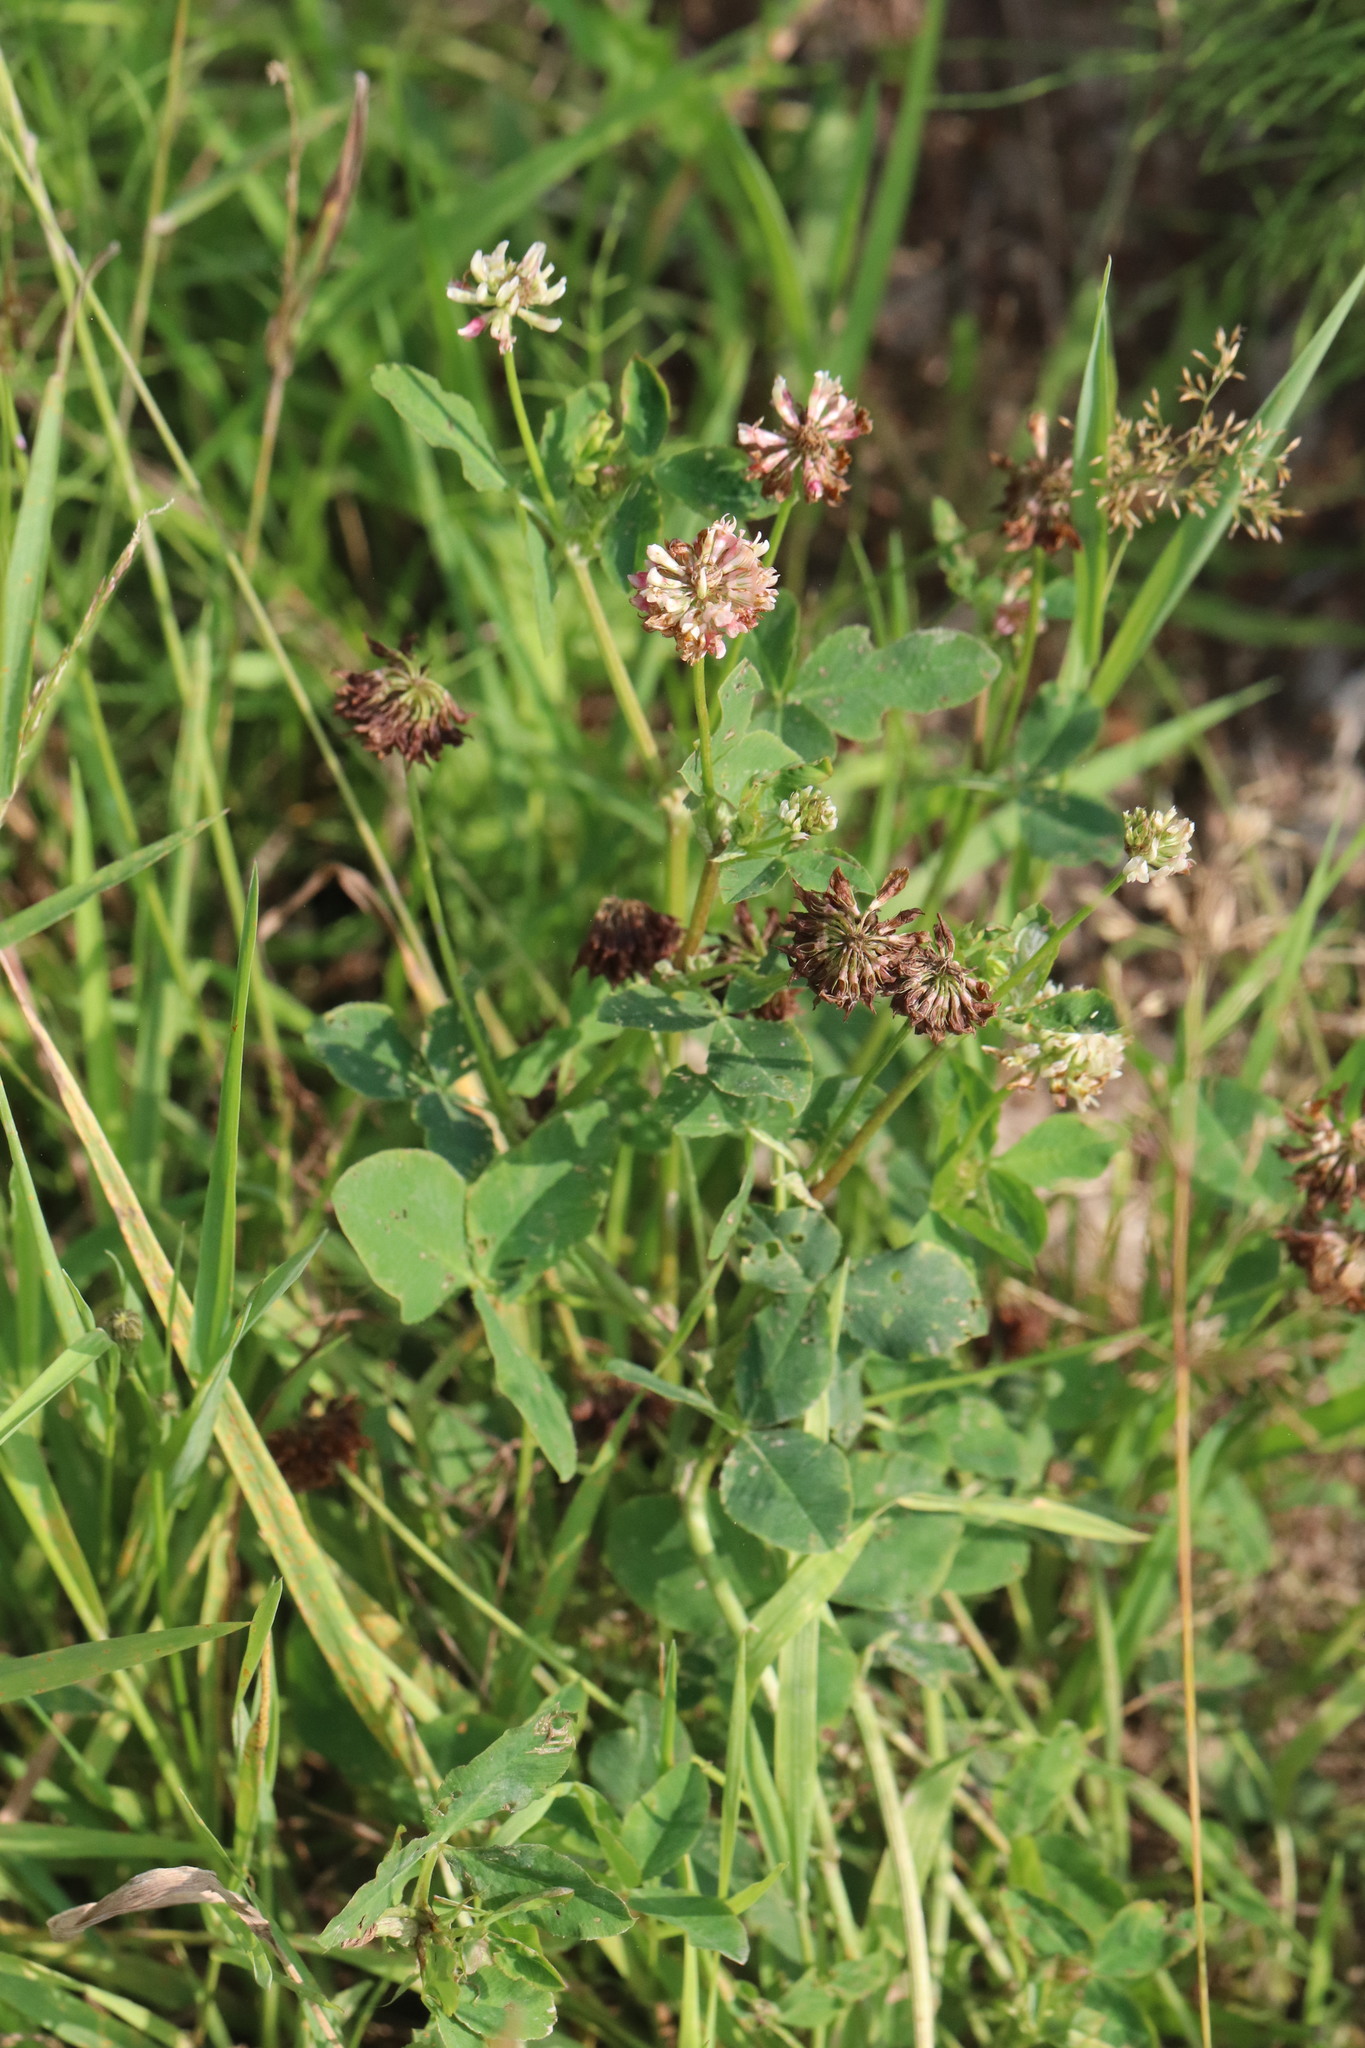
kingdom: Plantae
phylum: Tracheophyta
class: Magnoliopsida
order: Fabales
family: Fabaceae
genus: Trifolium
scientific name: Trifolium hybridum
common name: Alsike clover
